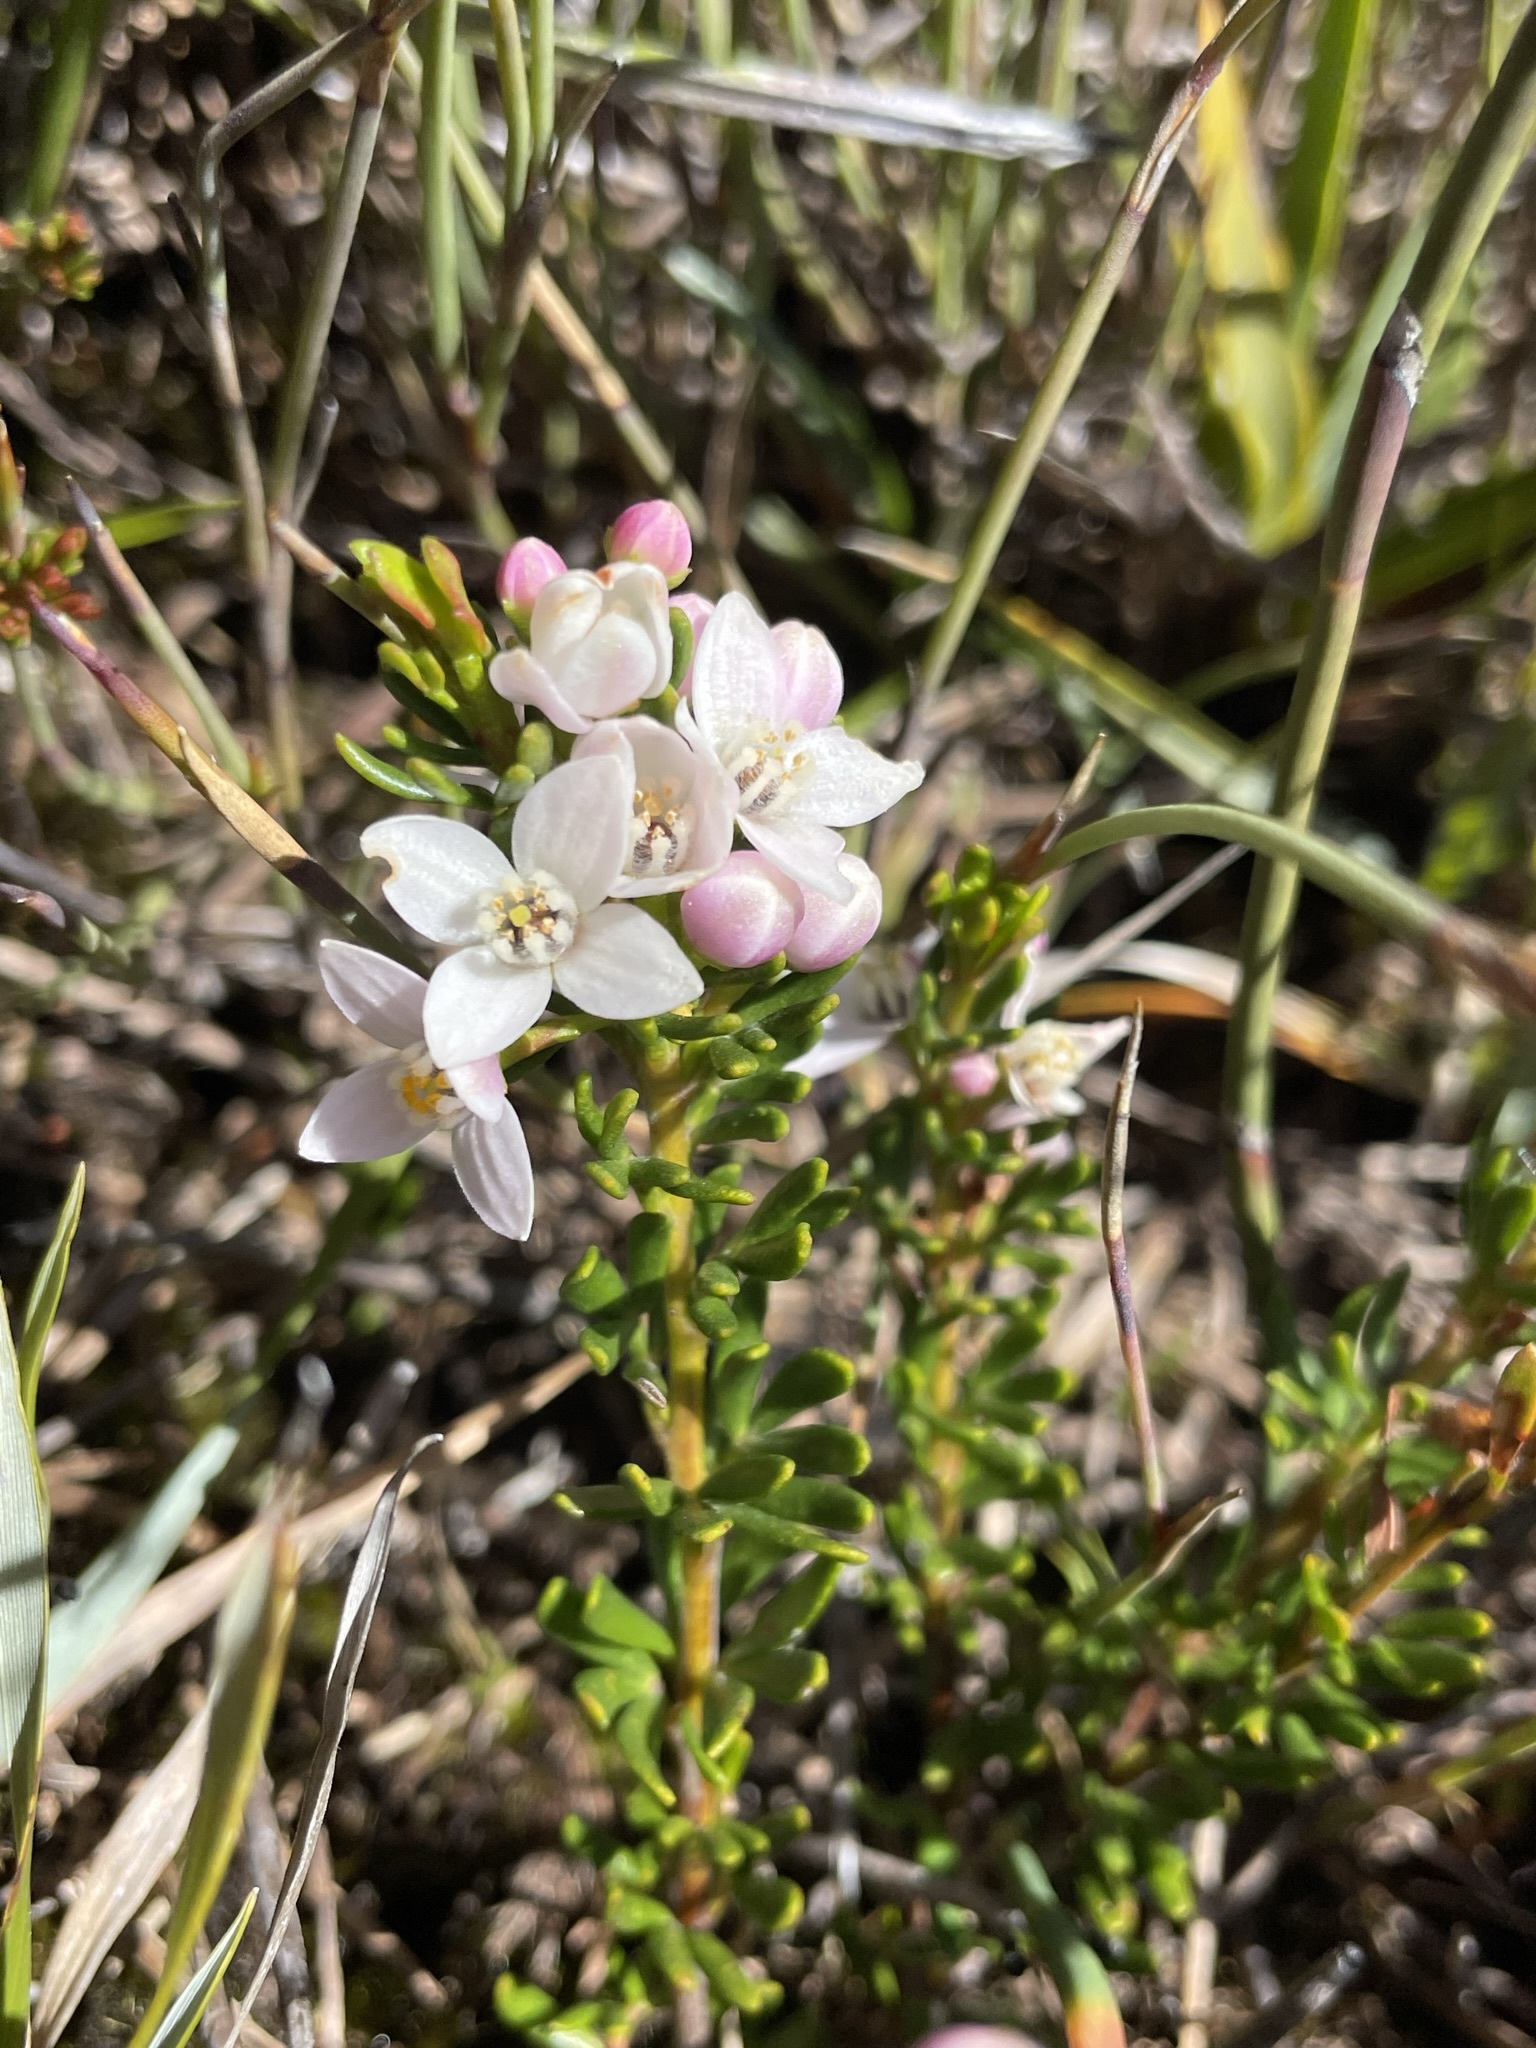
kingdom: Plantae
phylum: Tracheophyta
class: Magnoliopsida
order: Sapindales
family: Rutaceae
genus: Boronia
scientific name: Boronia citriodora
